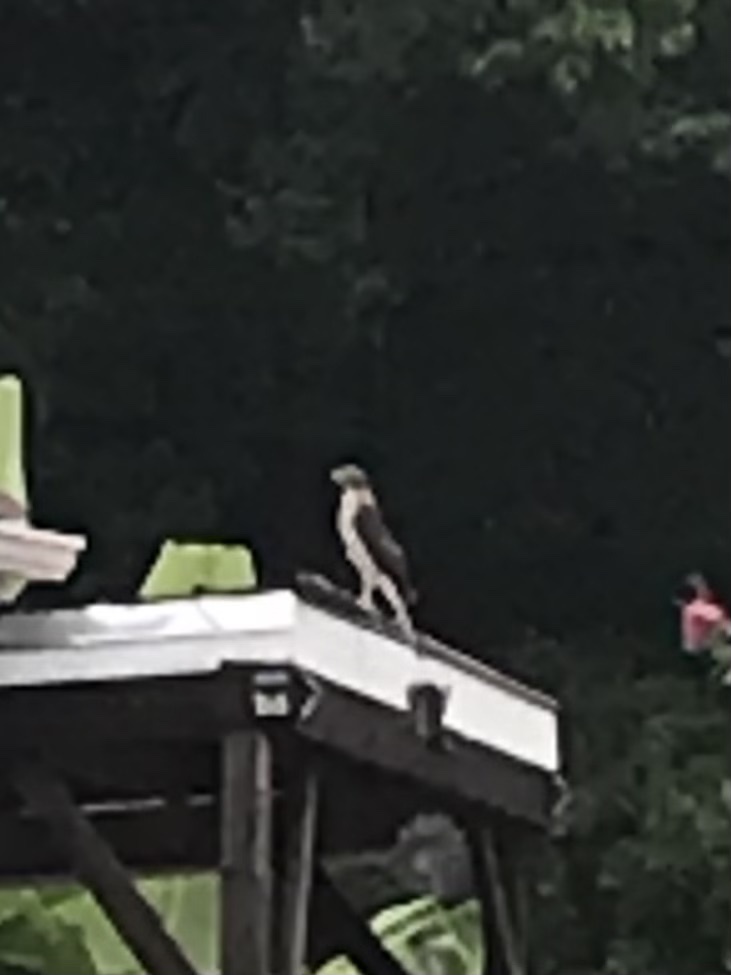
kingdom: Animalia
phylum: Chordata
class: Aves
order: Accipitriformes
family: Accipitridae
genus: Accipiter
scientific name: Accipiter cooperii
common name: Cooper's hawk
